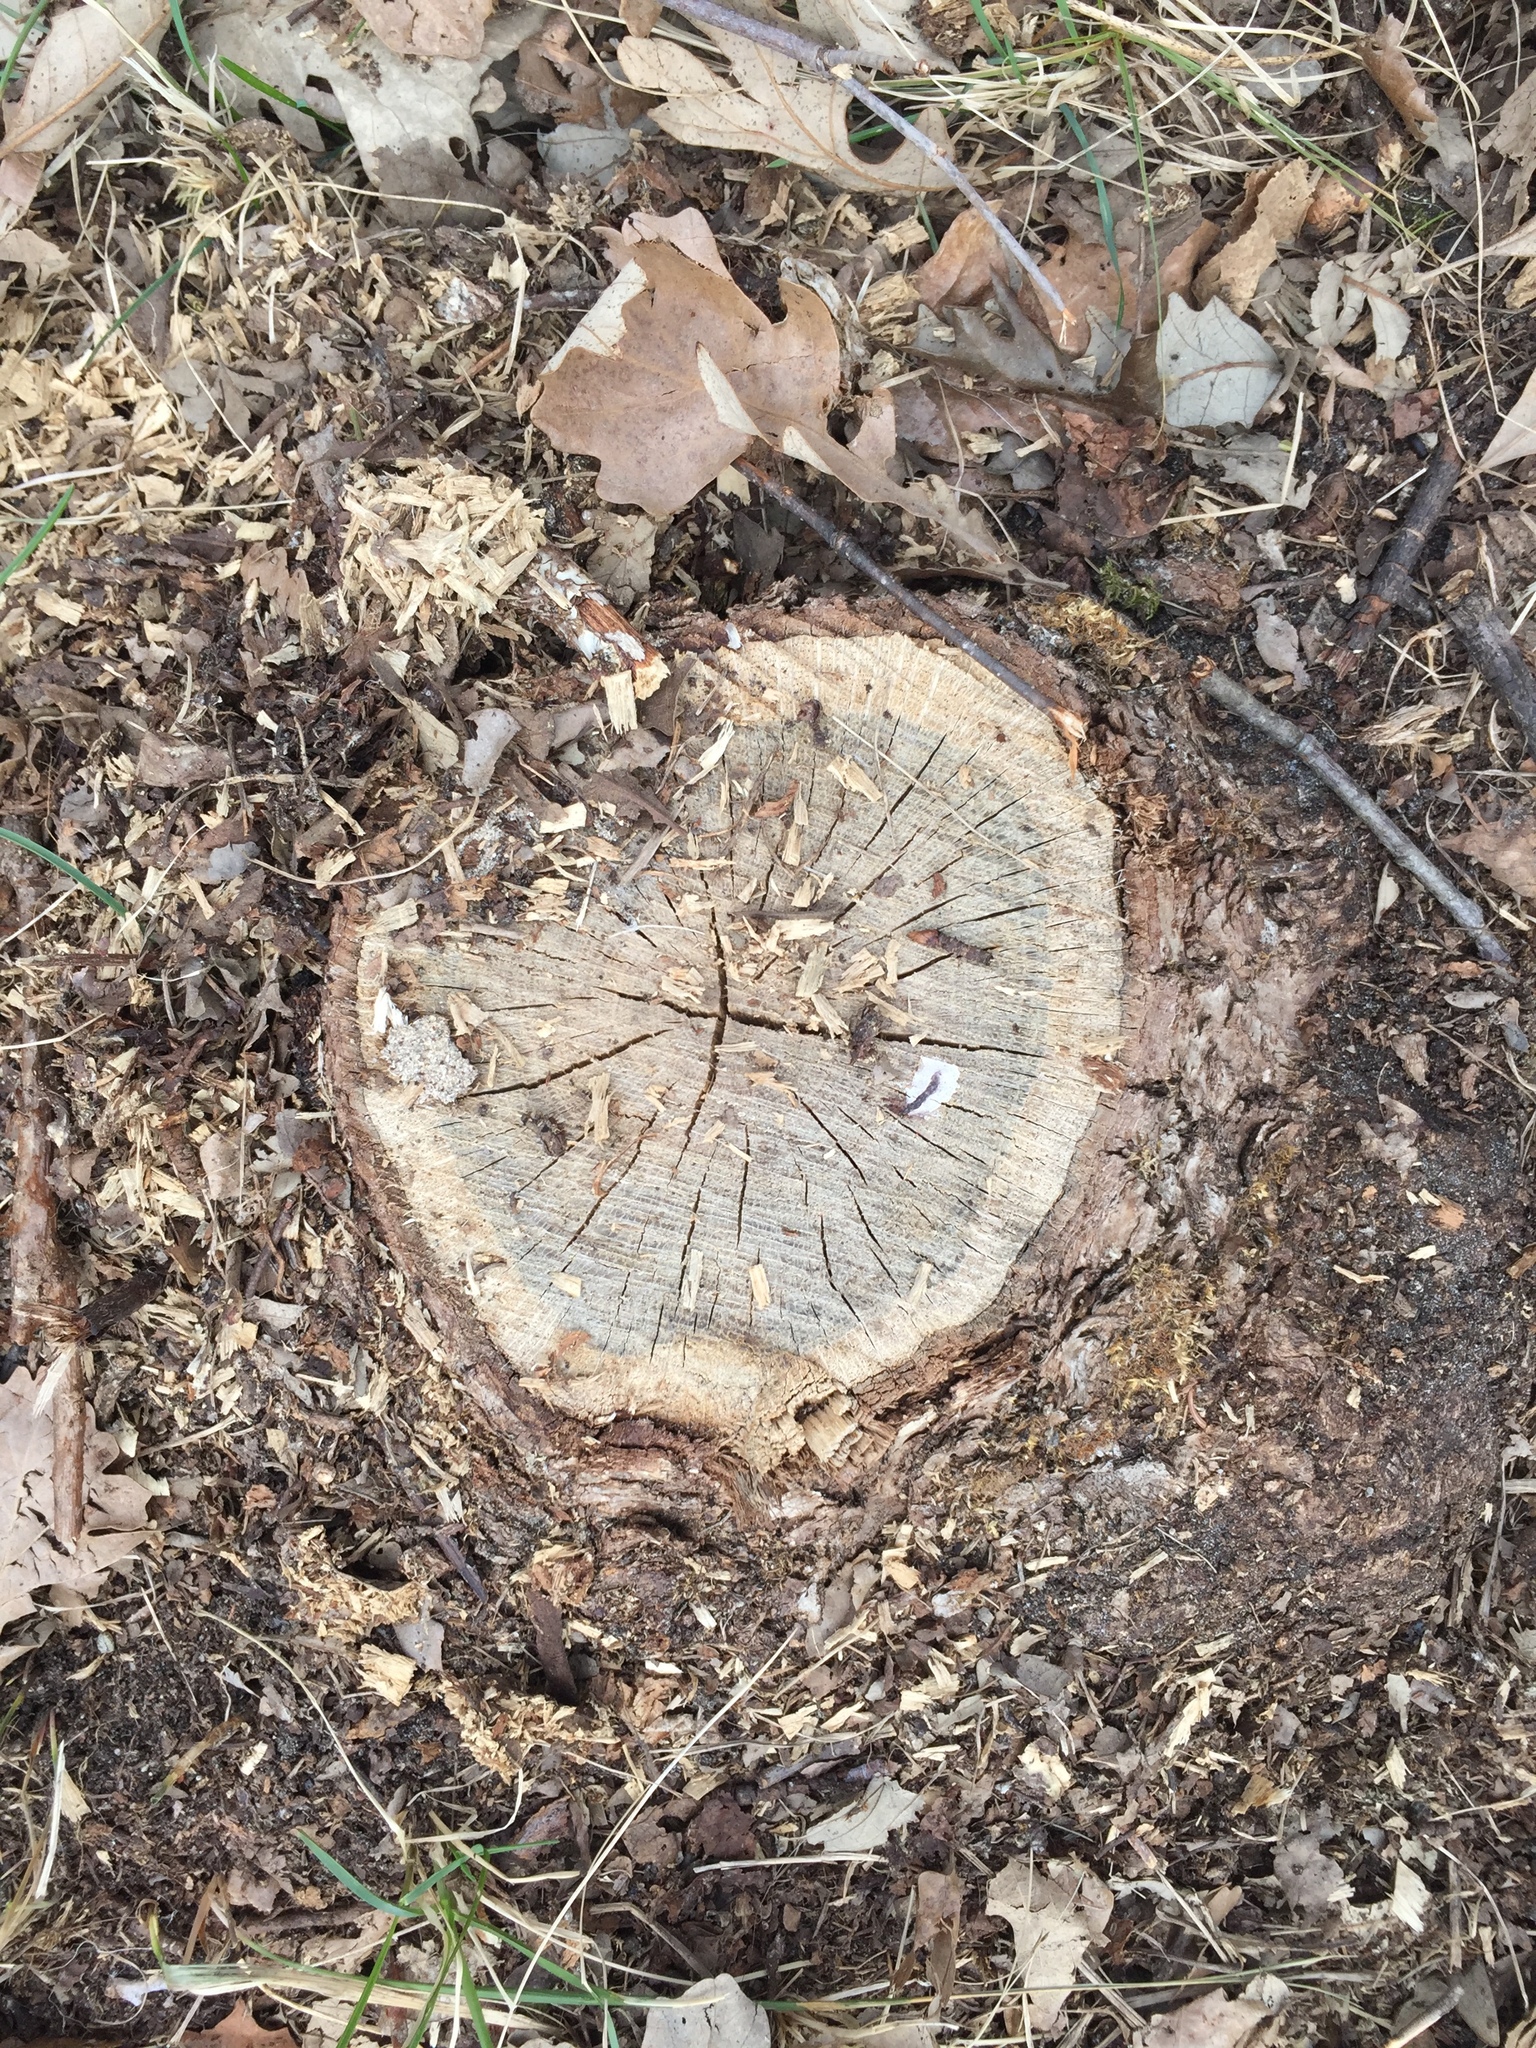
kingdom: Plantae
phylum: Tracheophyta
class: Magnoliopsida
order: Fagales
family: Fagaceae
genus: Quercus
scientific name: Quercus macrocarpa
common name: Bur oak
